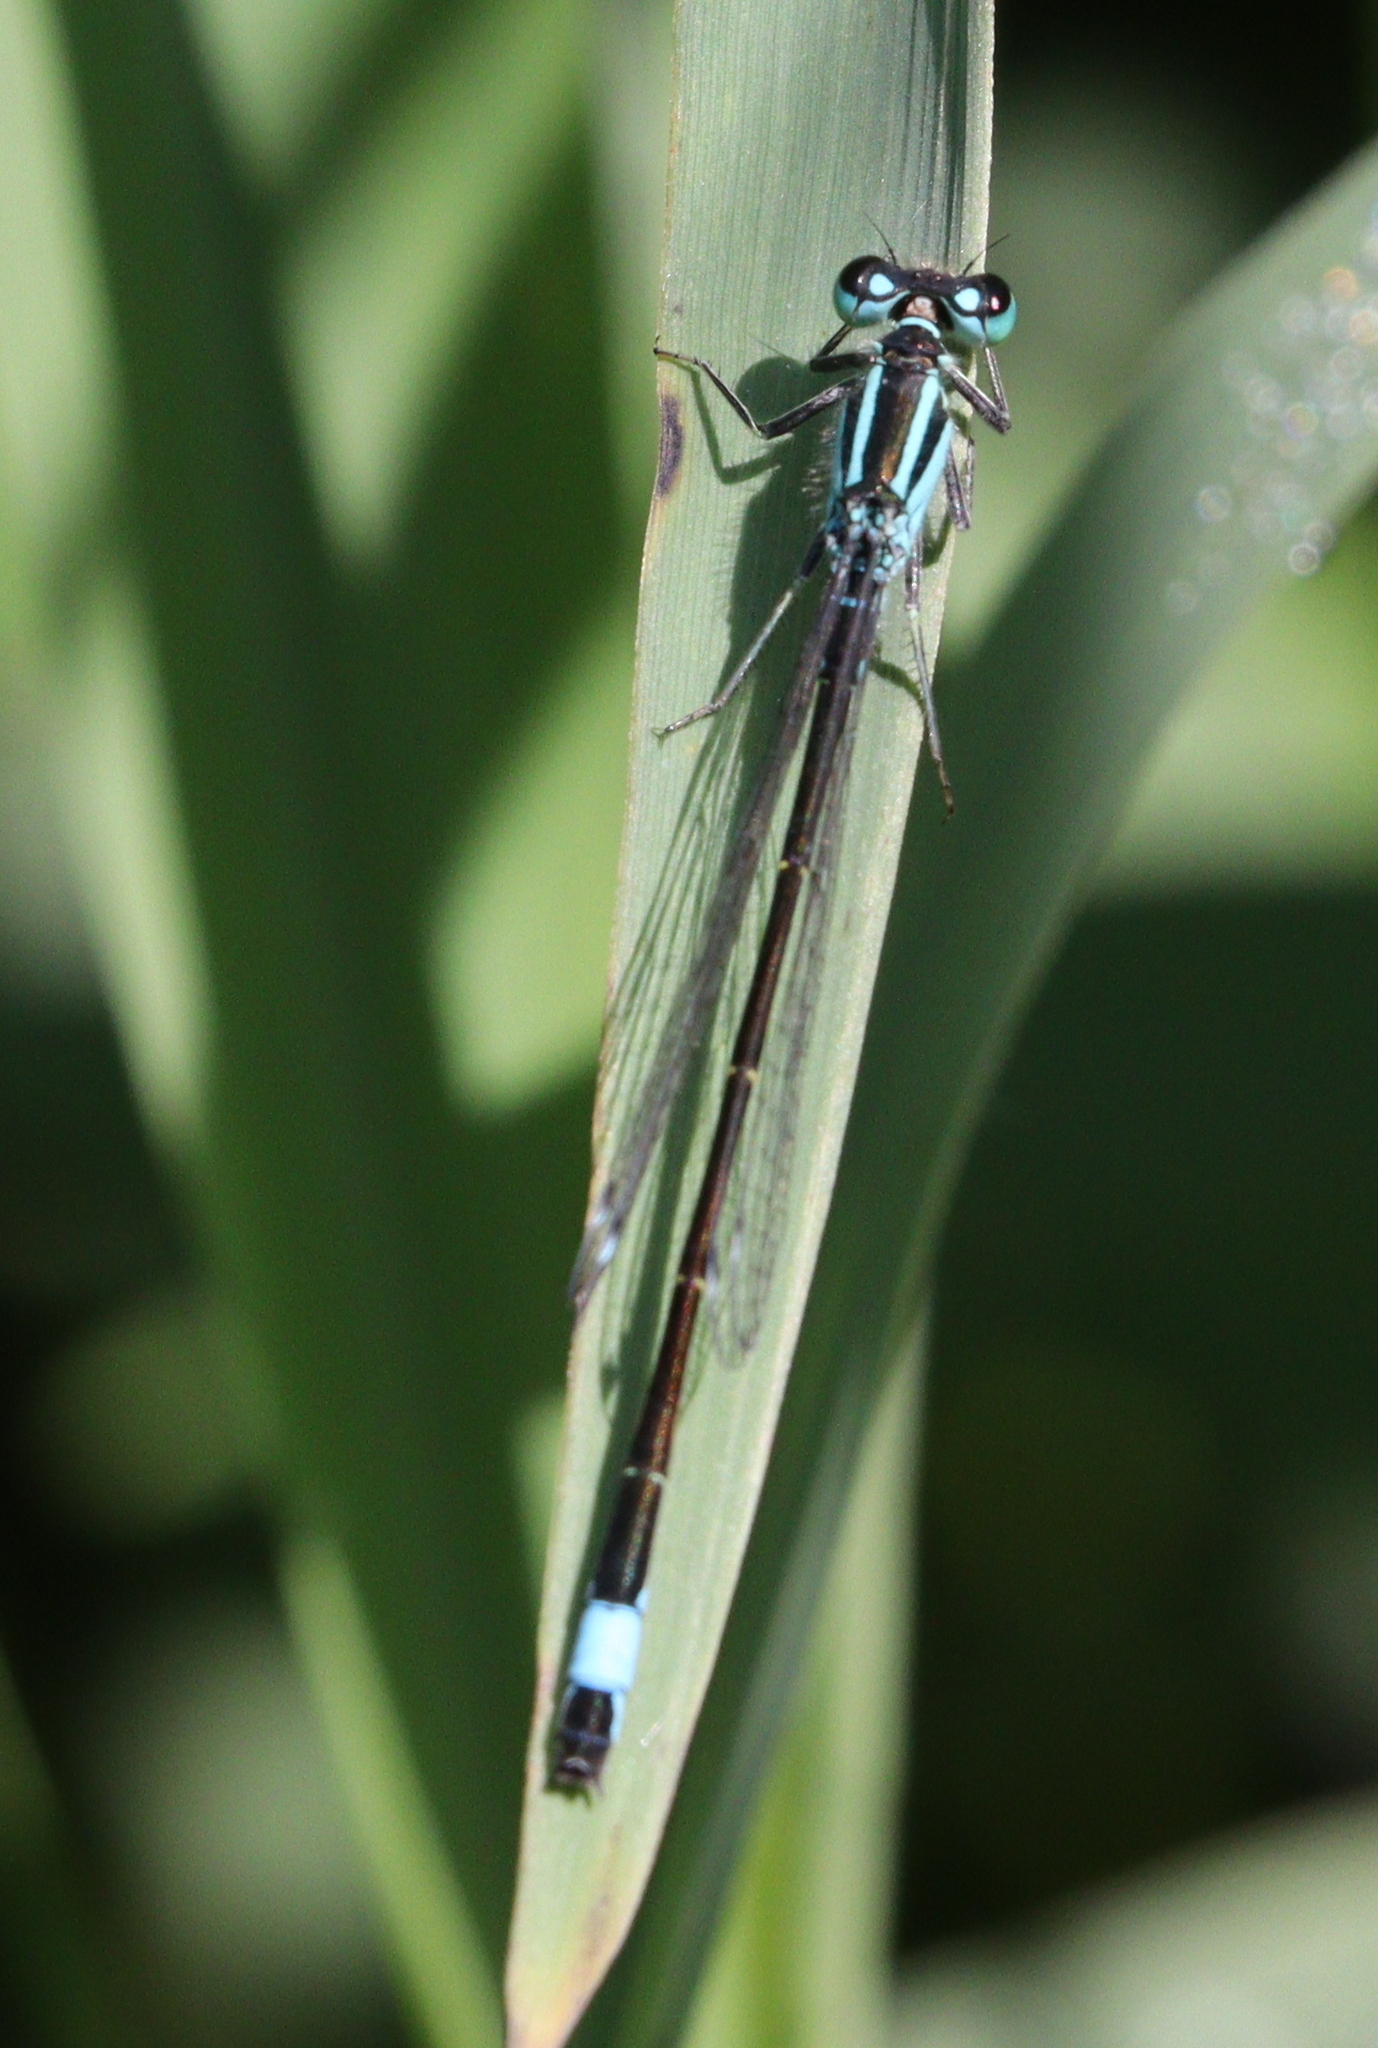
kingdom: Animalia
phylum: Arthropoda
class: Insecta
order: Odonata
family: Coenagrionidae
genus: Ischnura
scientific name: Ischnura elegans
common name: Blue-tailed damselfly
